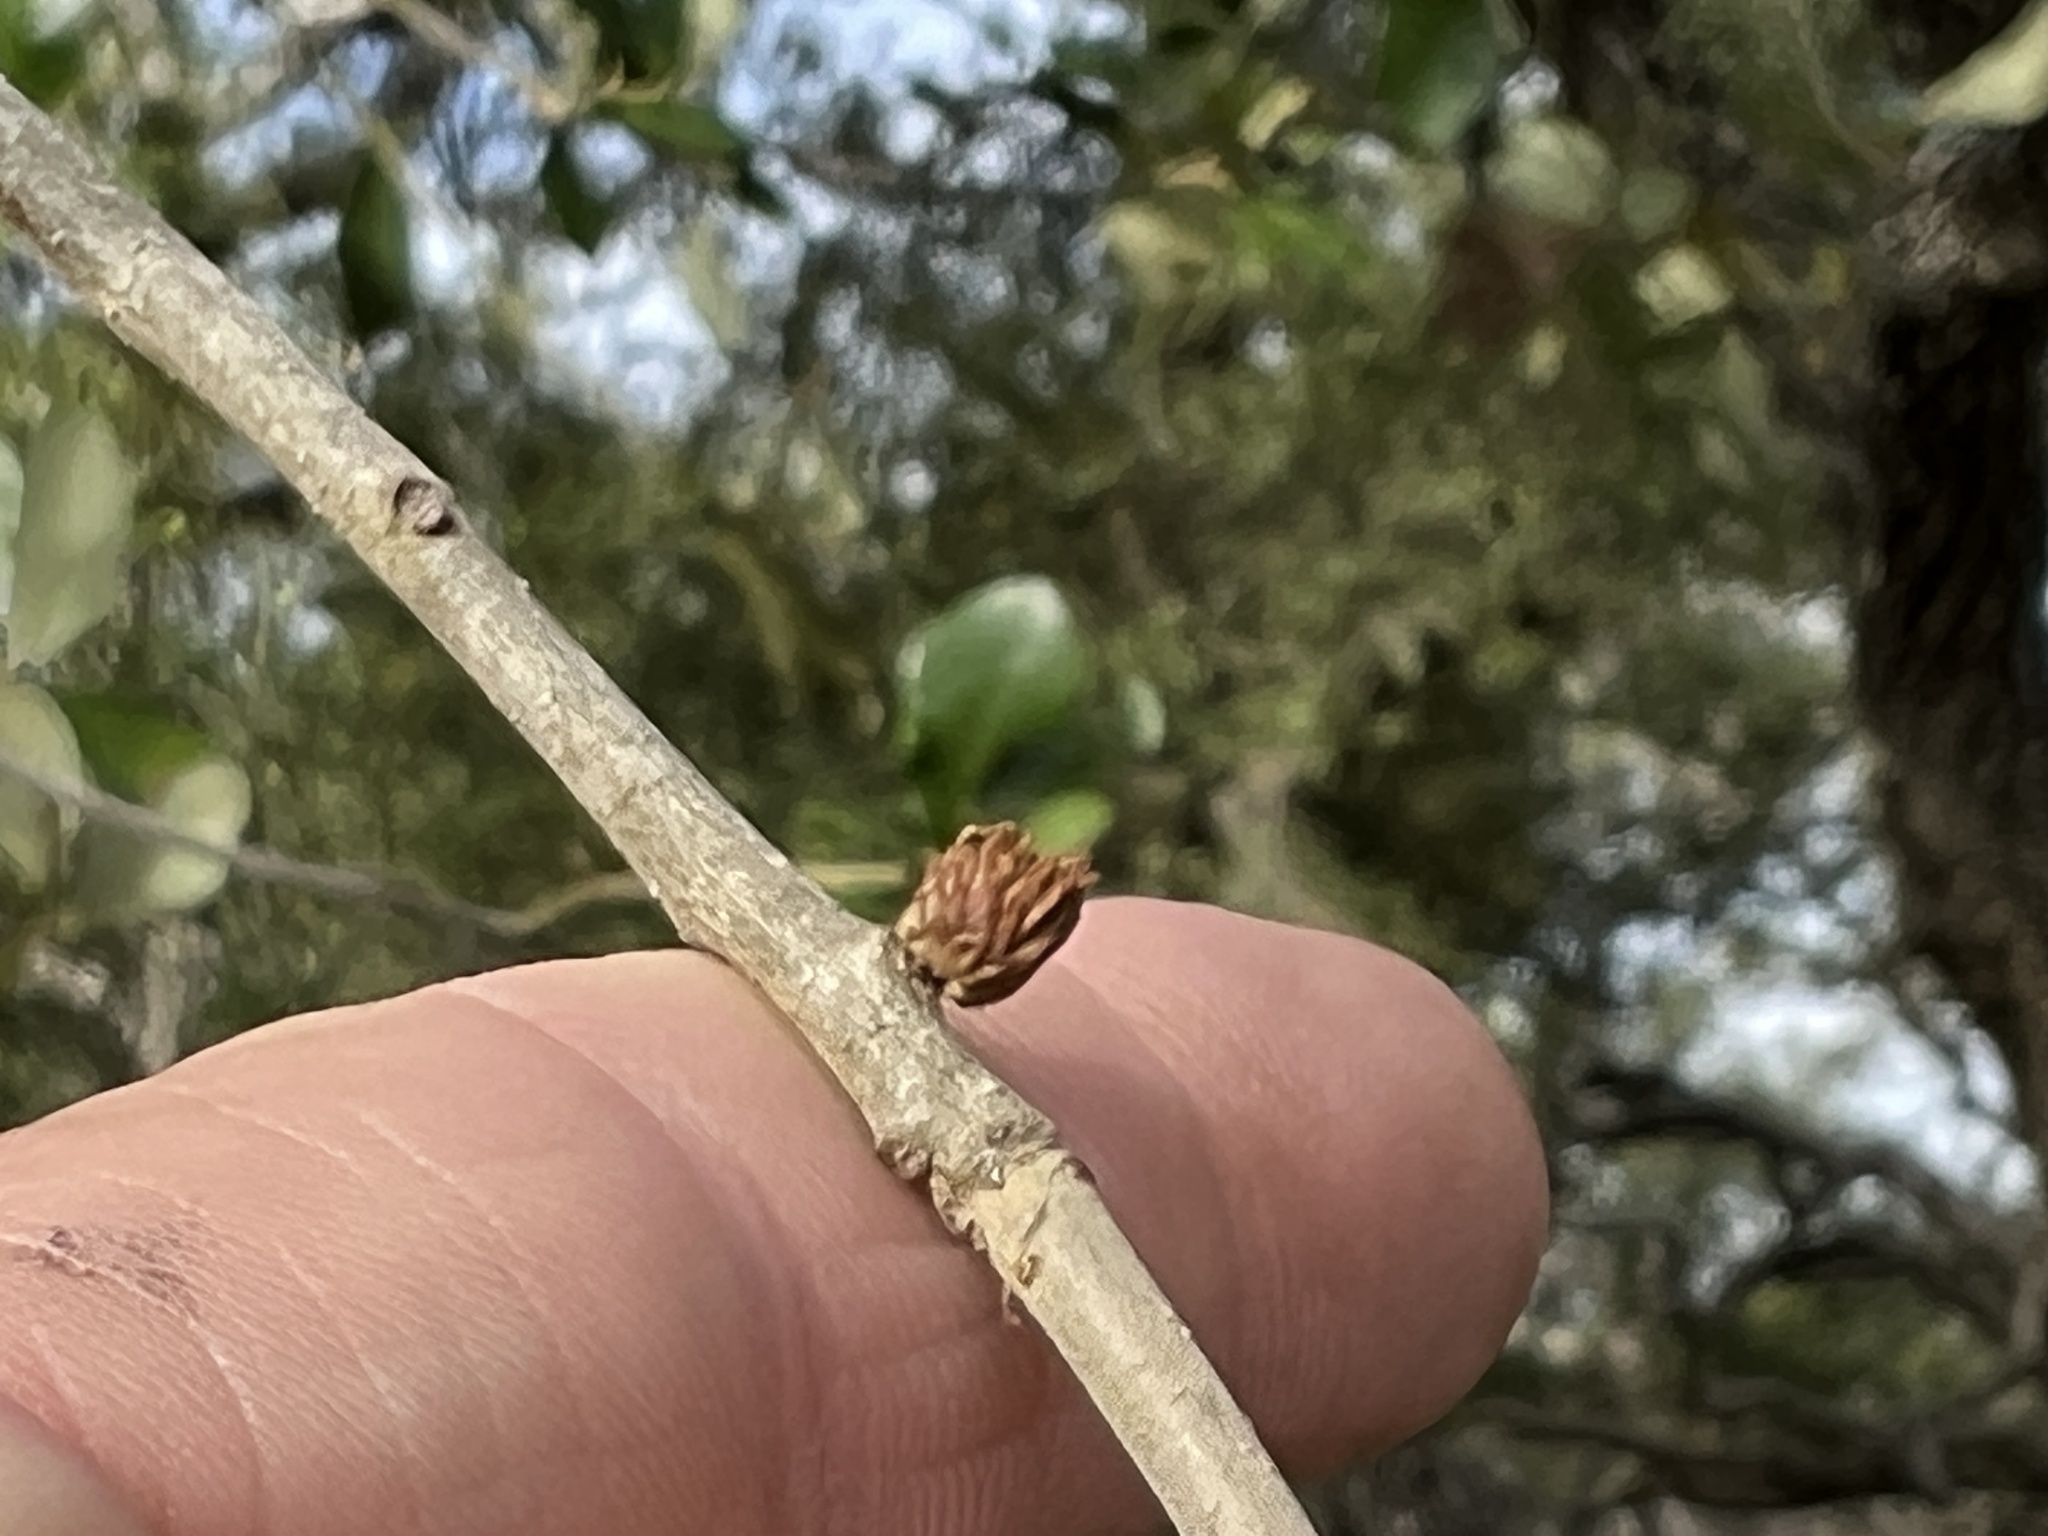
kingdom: Animalia
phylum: Arthropoda
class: Insecta
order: Hymenoptera
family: Cynipidae
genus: Andricus
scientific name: Andricus quercusfoliatus
